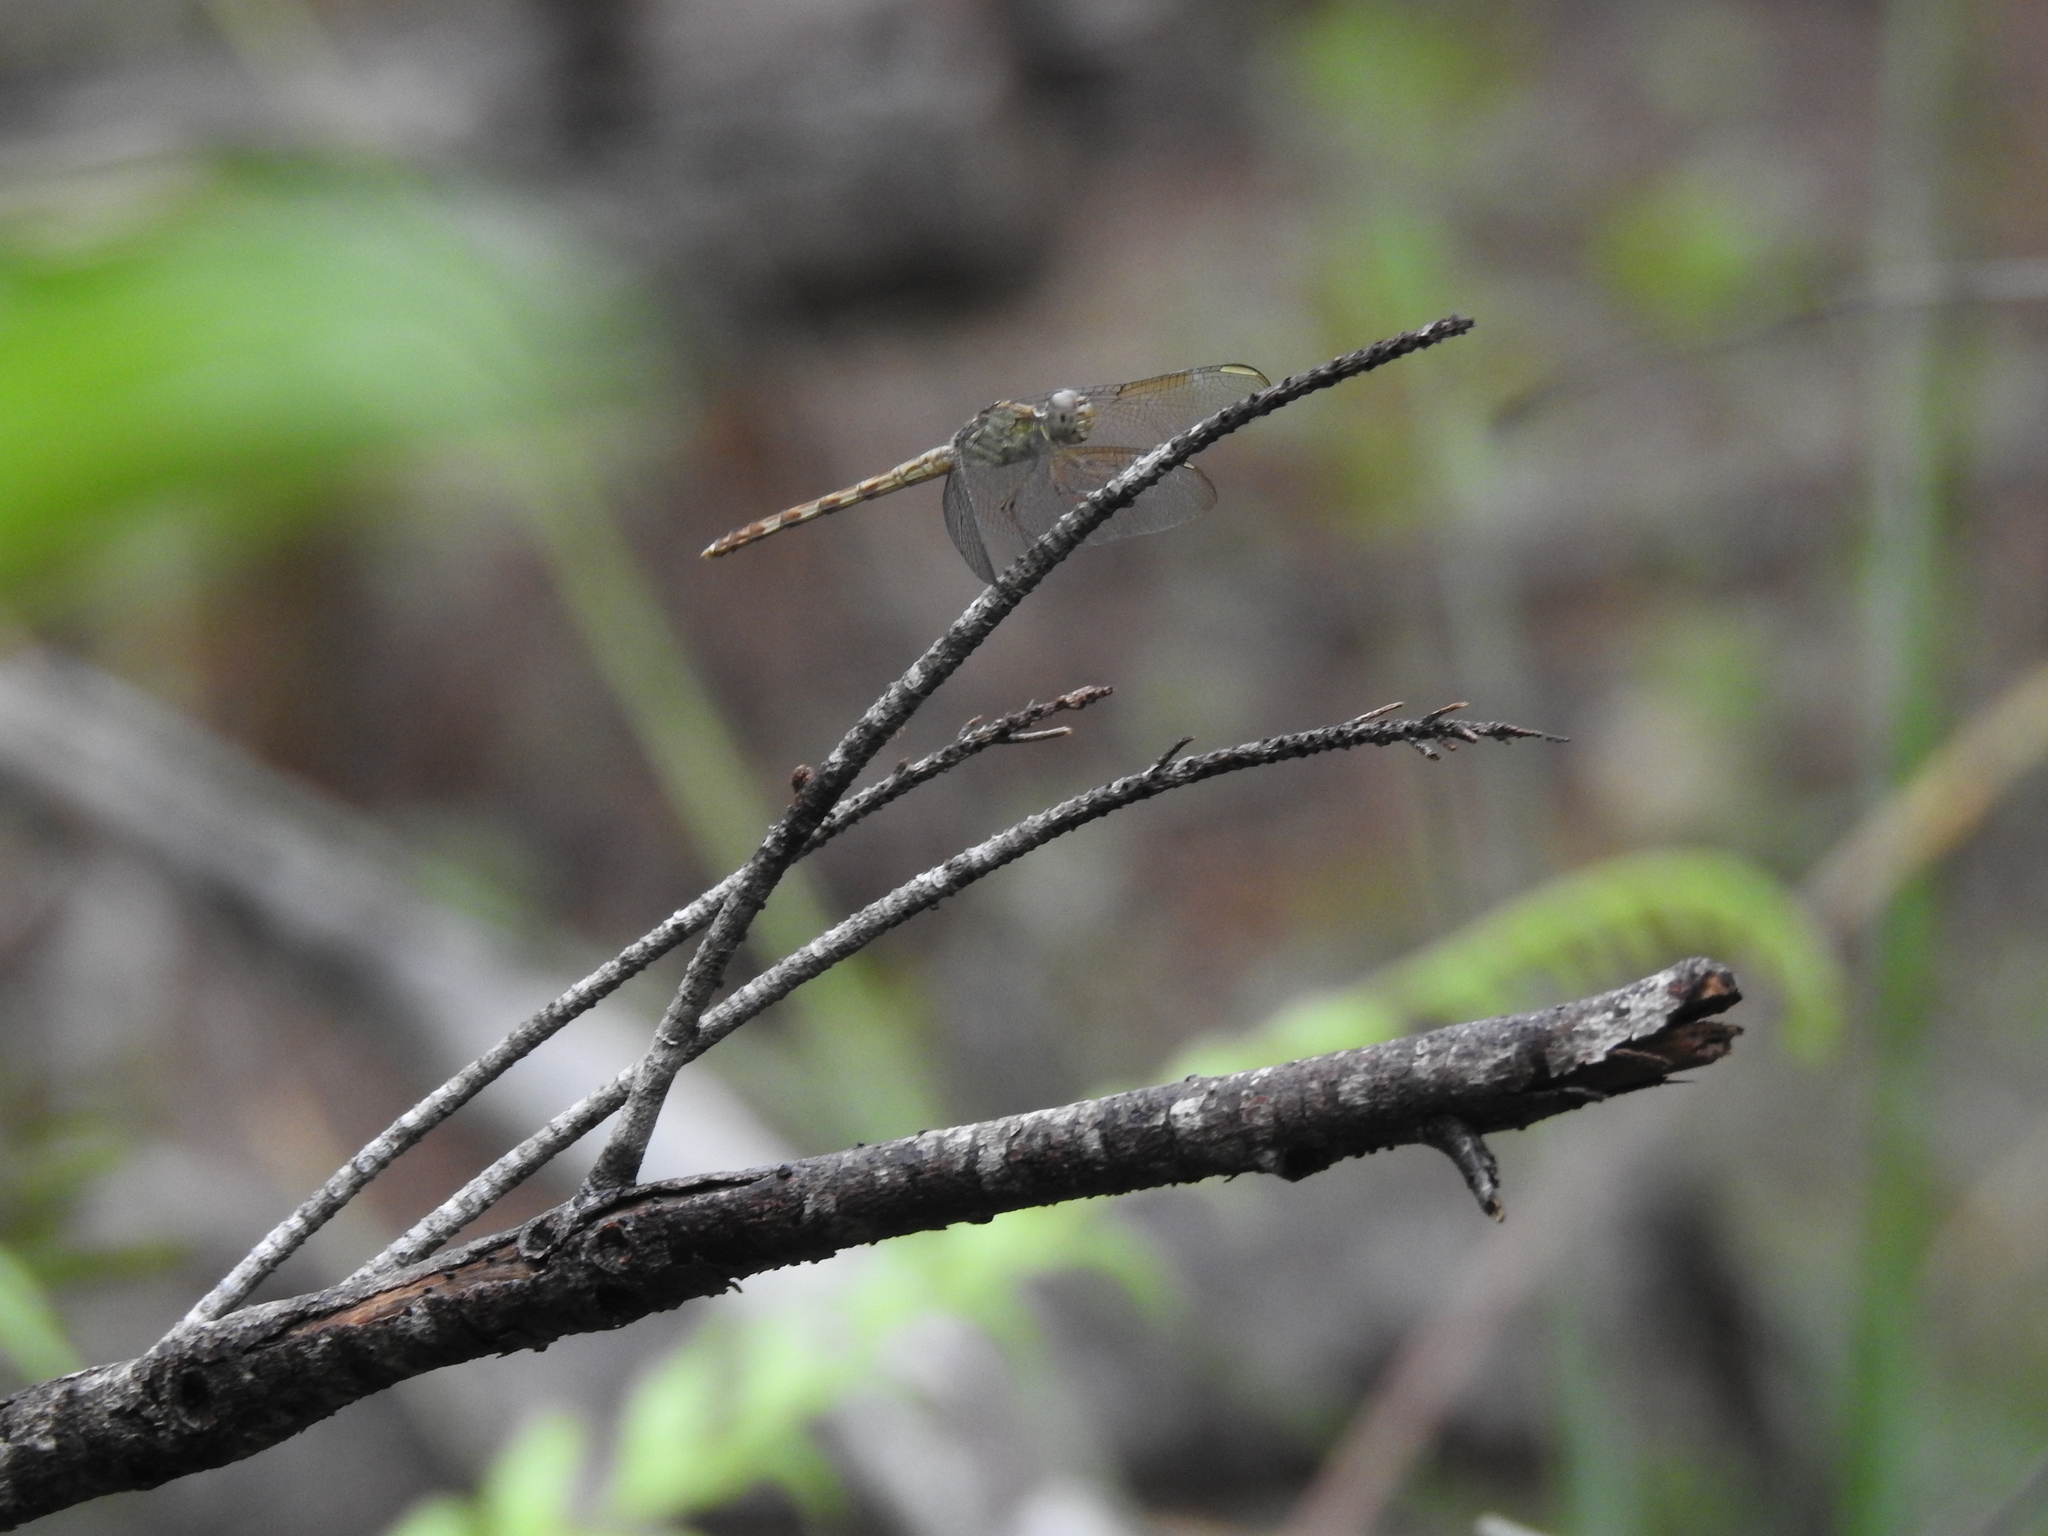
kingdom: Animalia
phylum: Arthropoda
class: Insecta
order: Odonata
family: Libellulidae
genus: Erythrodiplax
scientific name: Erythrodiplax umbrata
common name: Band-winged dragonlet
